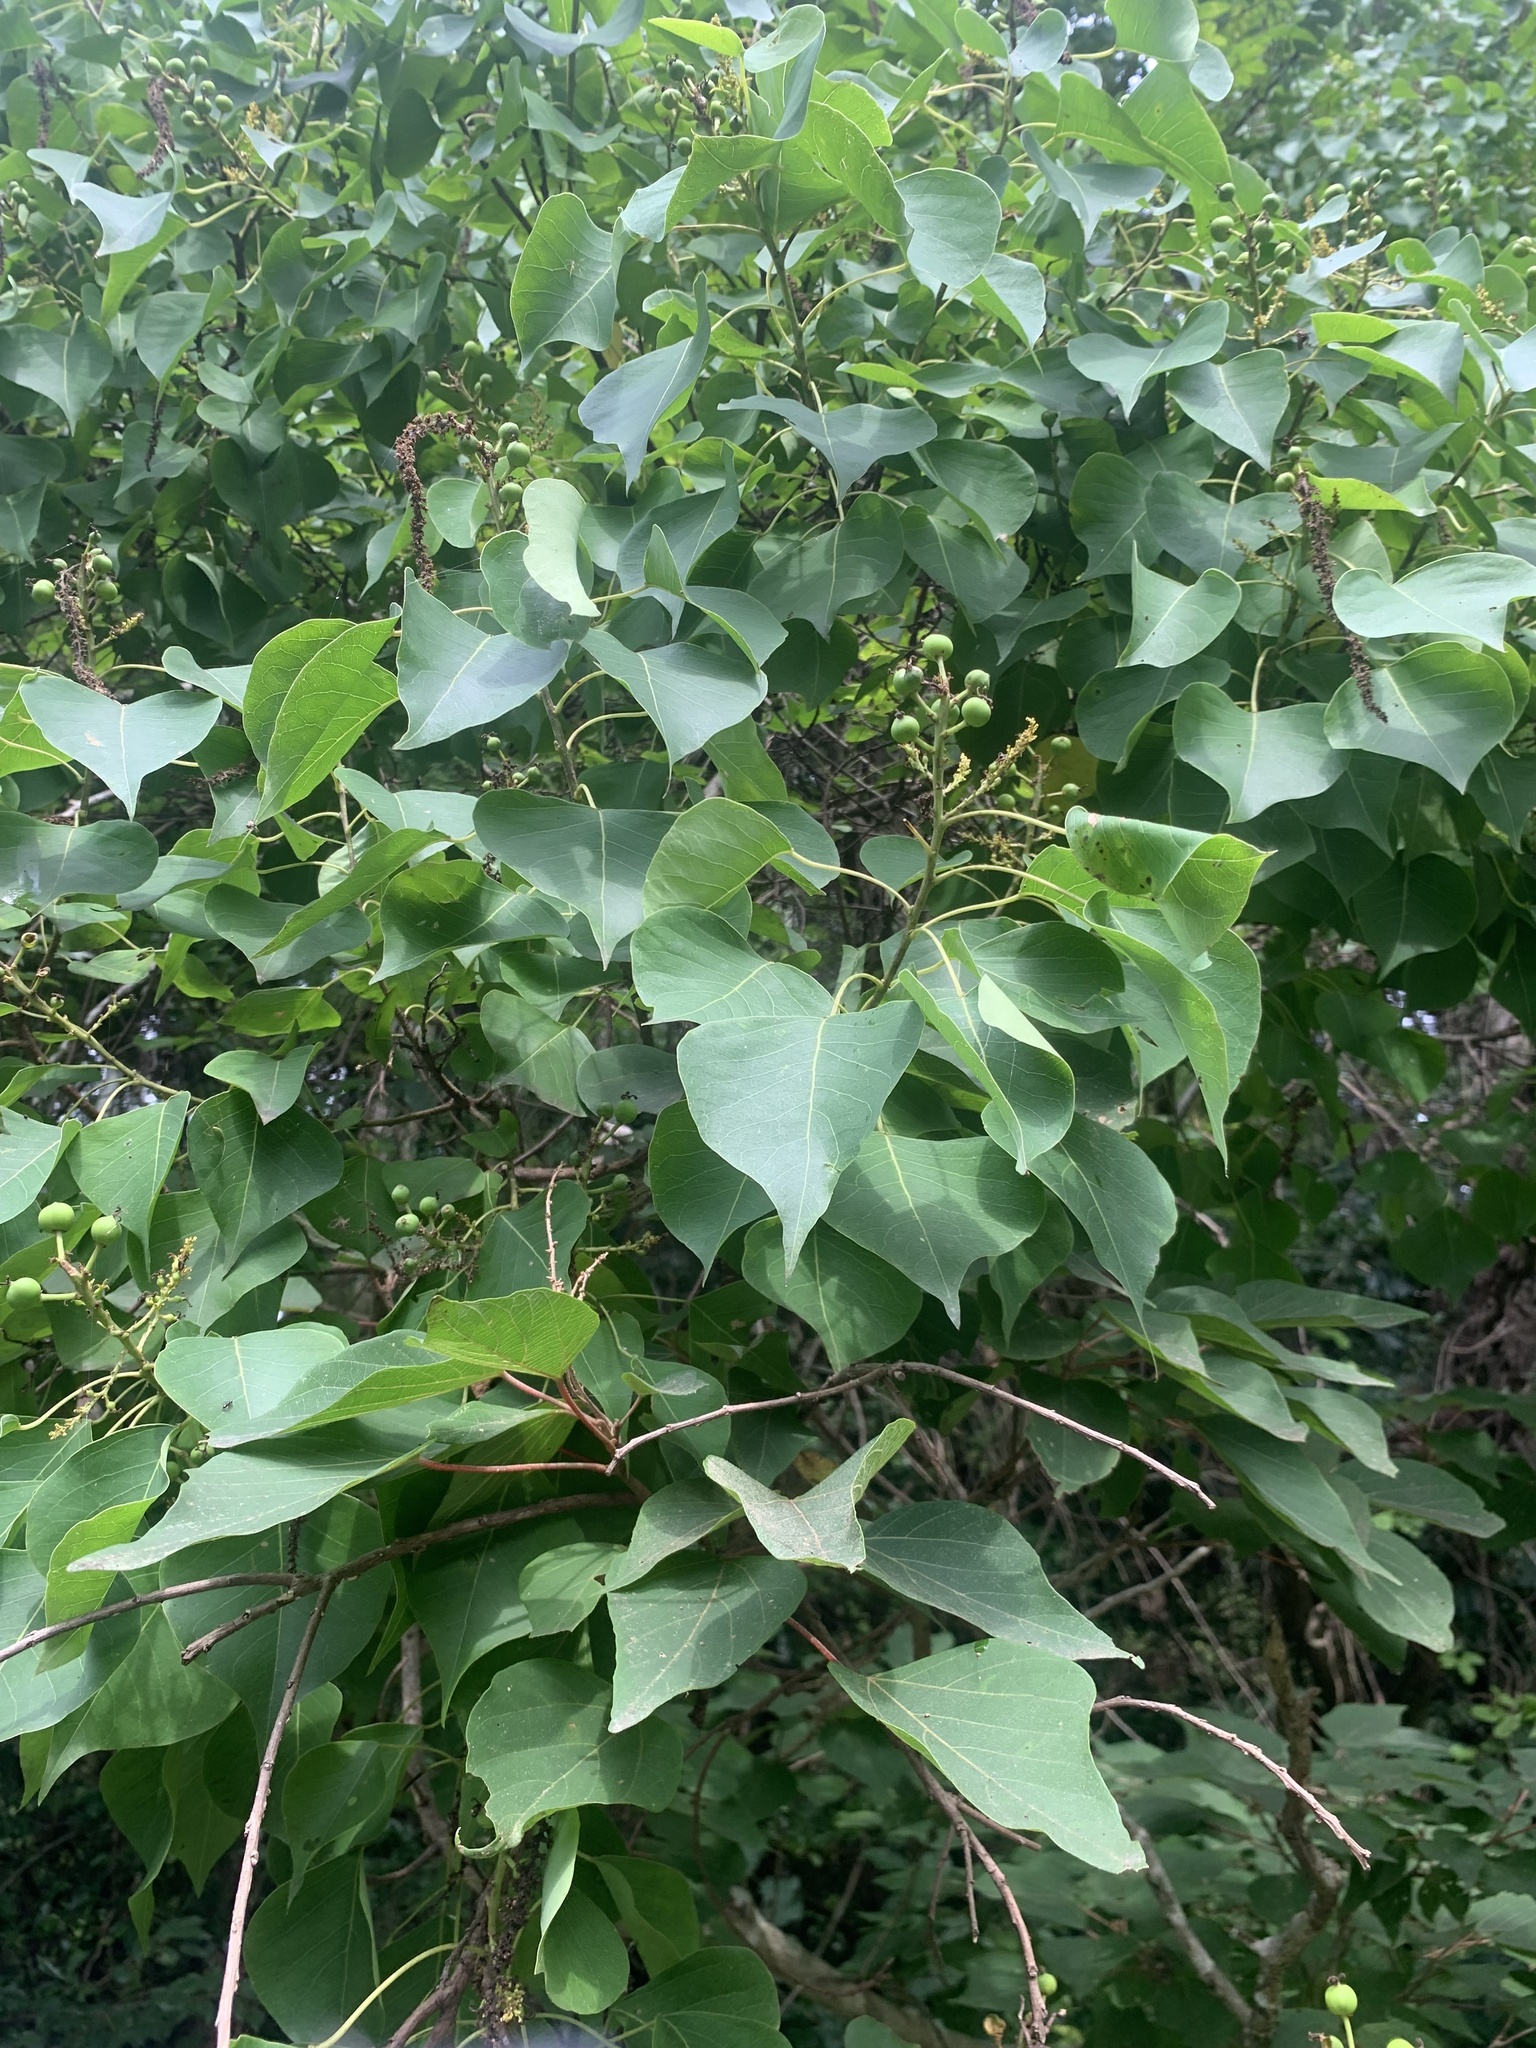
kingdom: Plantae
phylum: Tracheophyta
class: Magnoliopsida
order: Malpighiales
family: Euphorbiaceae
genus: Triadica
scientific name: Triadica sebifera
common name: Chinese tallow
